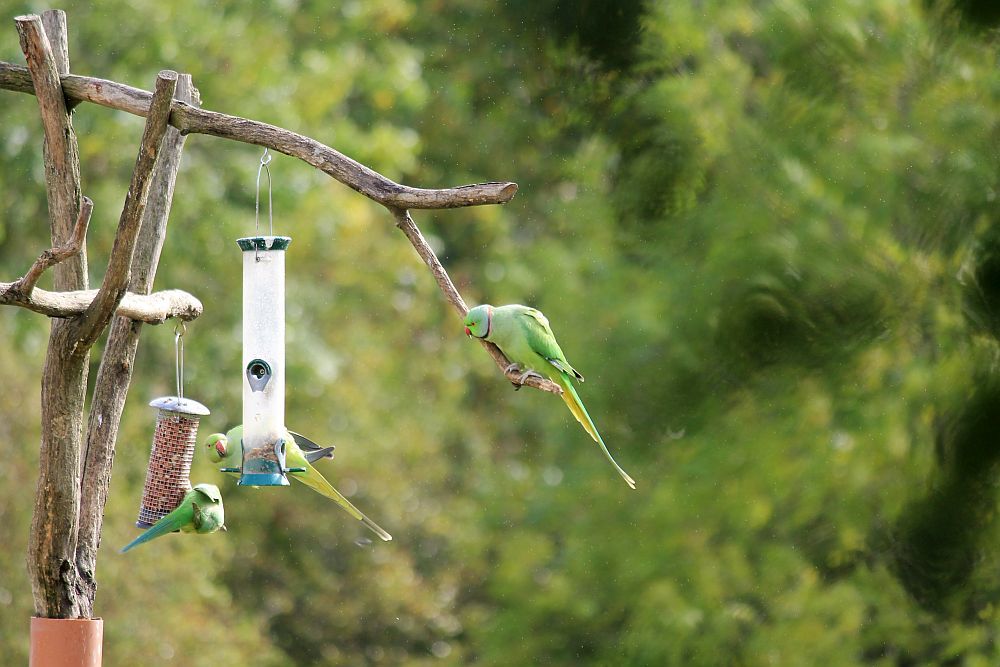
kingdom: Animalia
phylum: Chordata
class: Aves
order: Psittaciformes
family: Psittacidae
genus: Psittacula
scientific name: Psittacula krameri
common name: Rose-ringed parakeet
